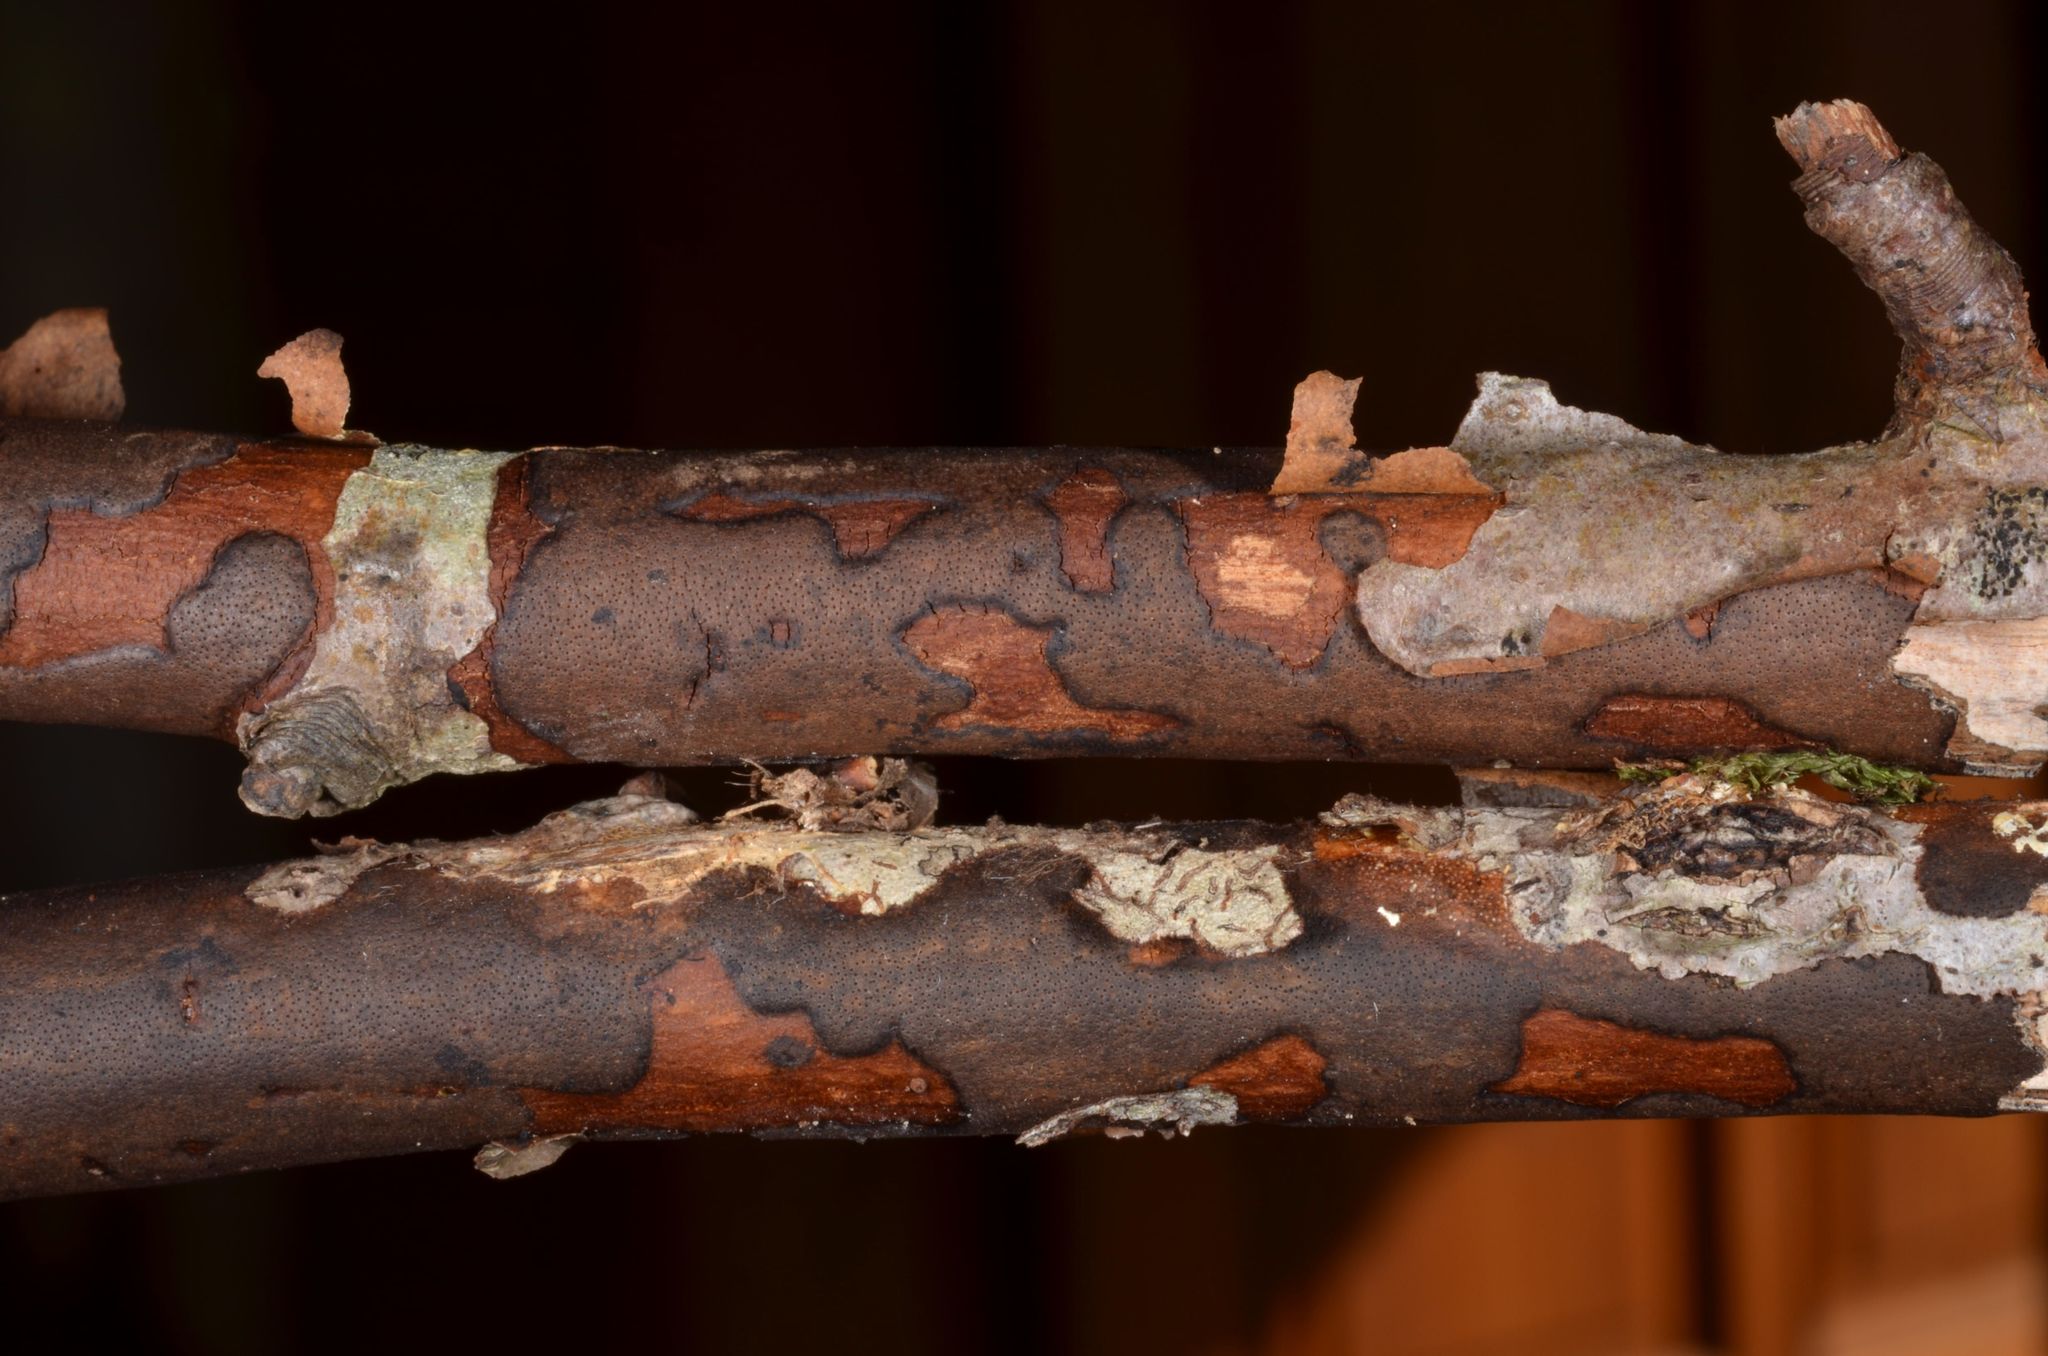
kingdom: Fungi
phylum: Ascomycota
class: Sordariomycetes
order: Xylariales
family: Diatrypaceae
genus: Diatrype
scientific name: Diatrype decorticata
